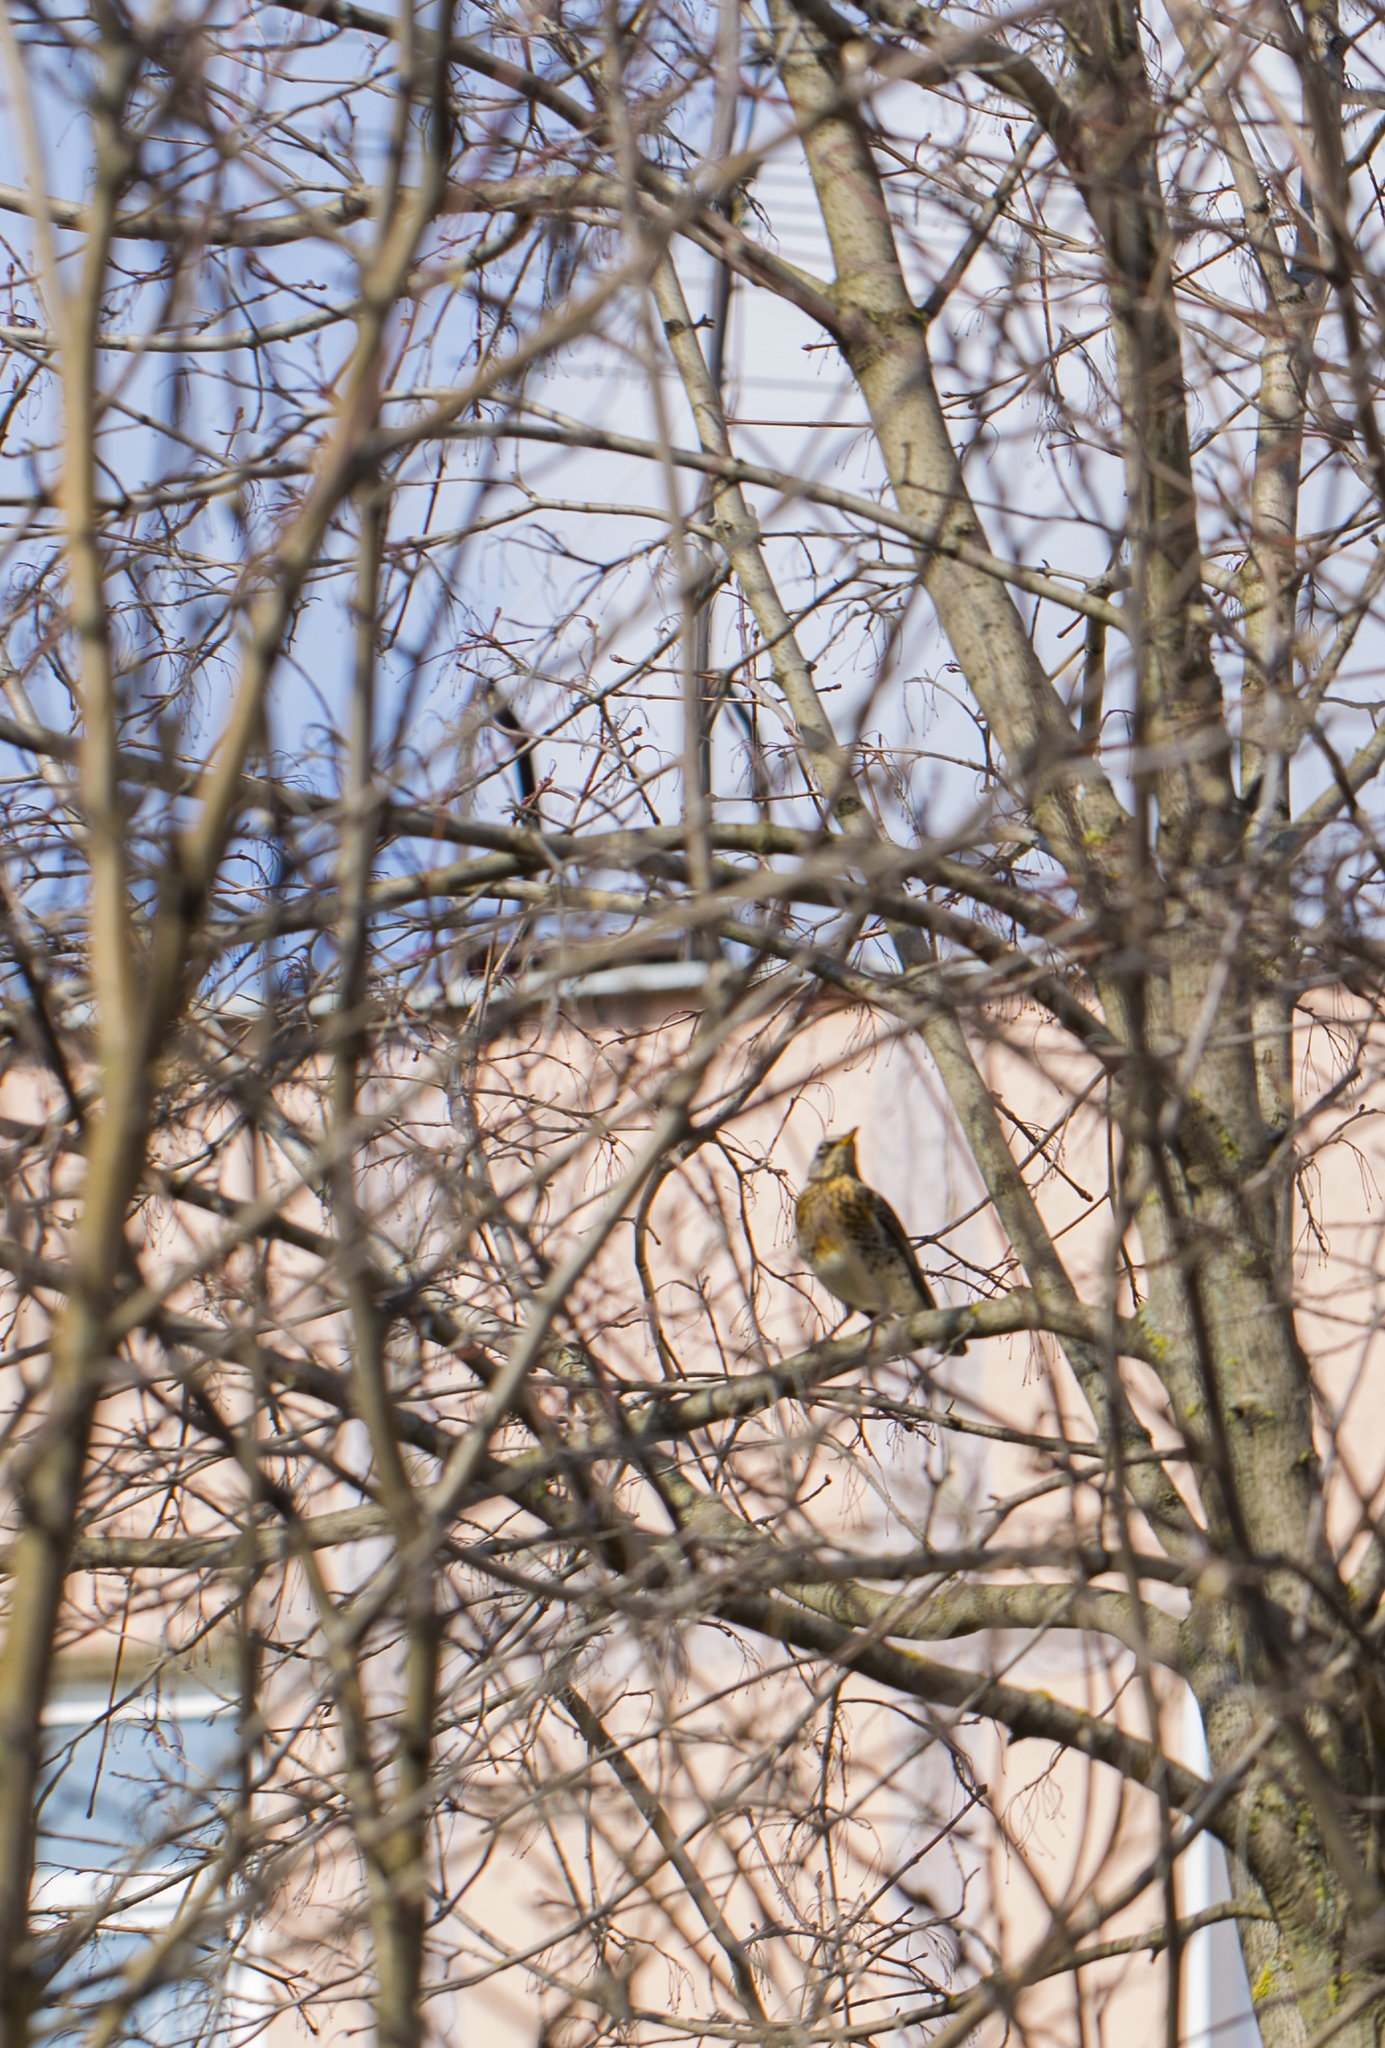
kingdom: Animalia
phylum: Chordata
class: Aves
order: Passeriformes
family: Turdidae
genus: Turdus
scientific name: Turdus pilaris
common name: Fieldfare
